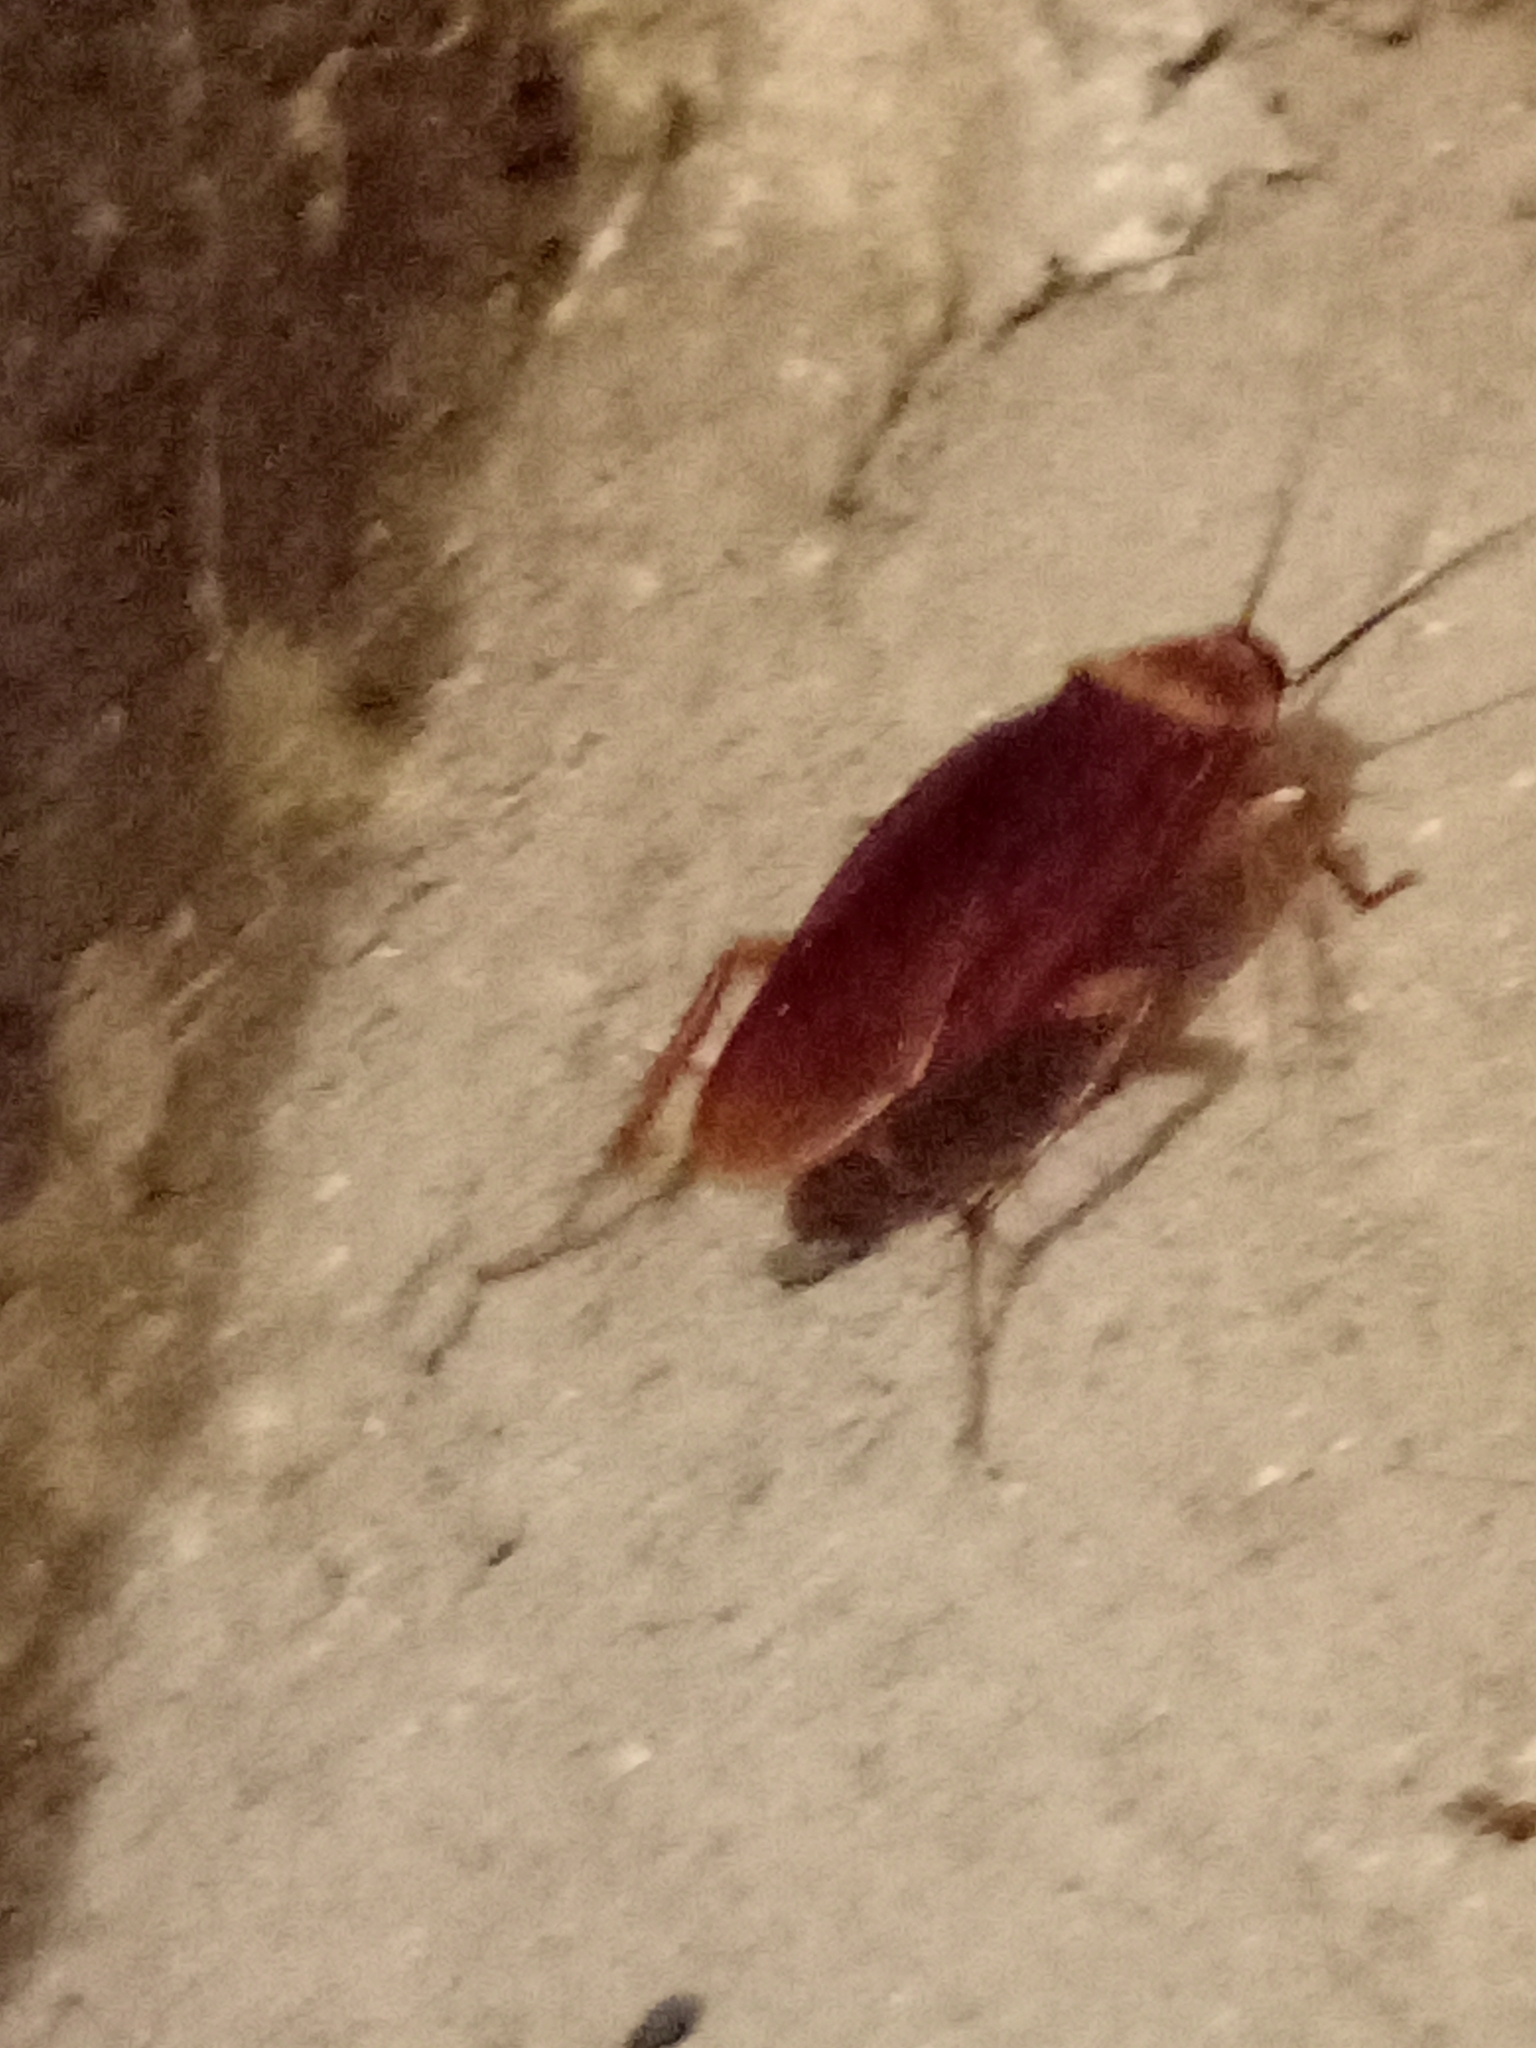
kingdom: Animalia
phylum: Arthropoda
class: Insecta
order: Blattodea
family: Blattidae
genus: Periplaneta
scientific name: Periplaneta americana
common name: American cockroach
